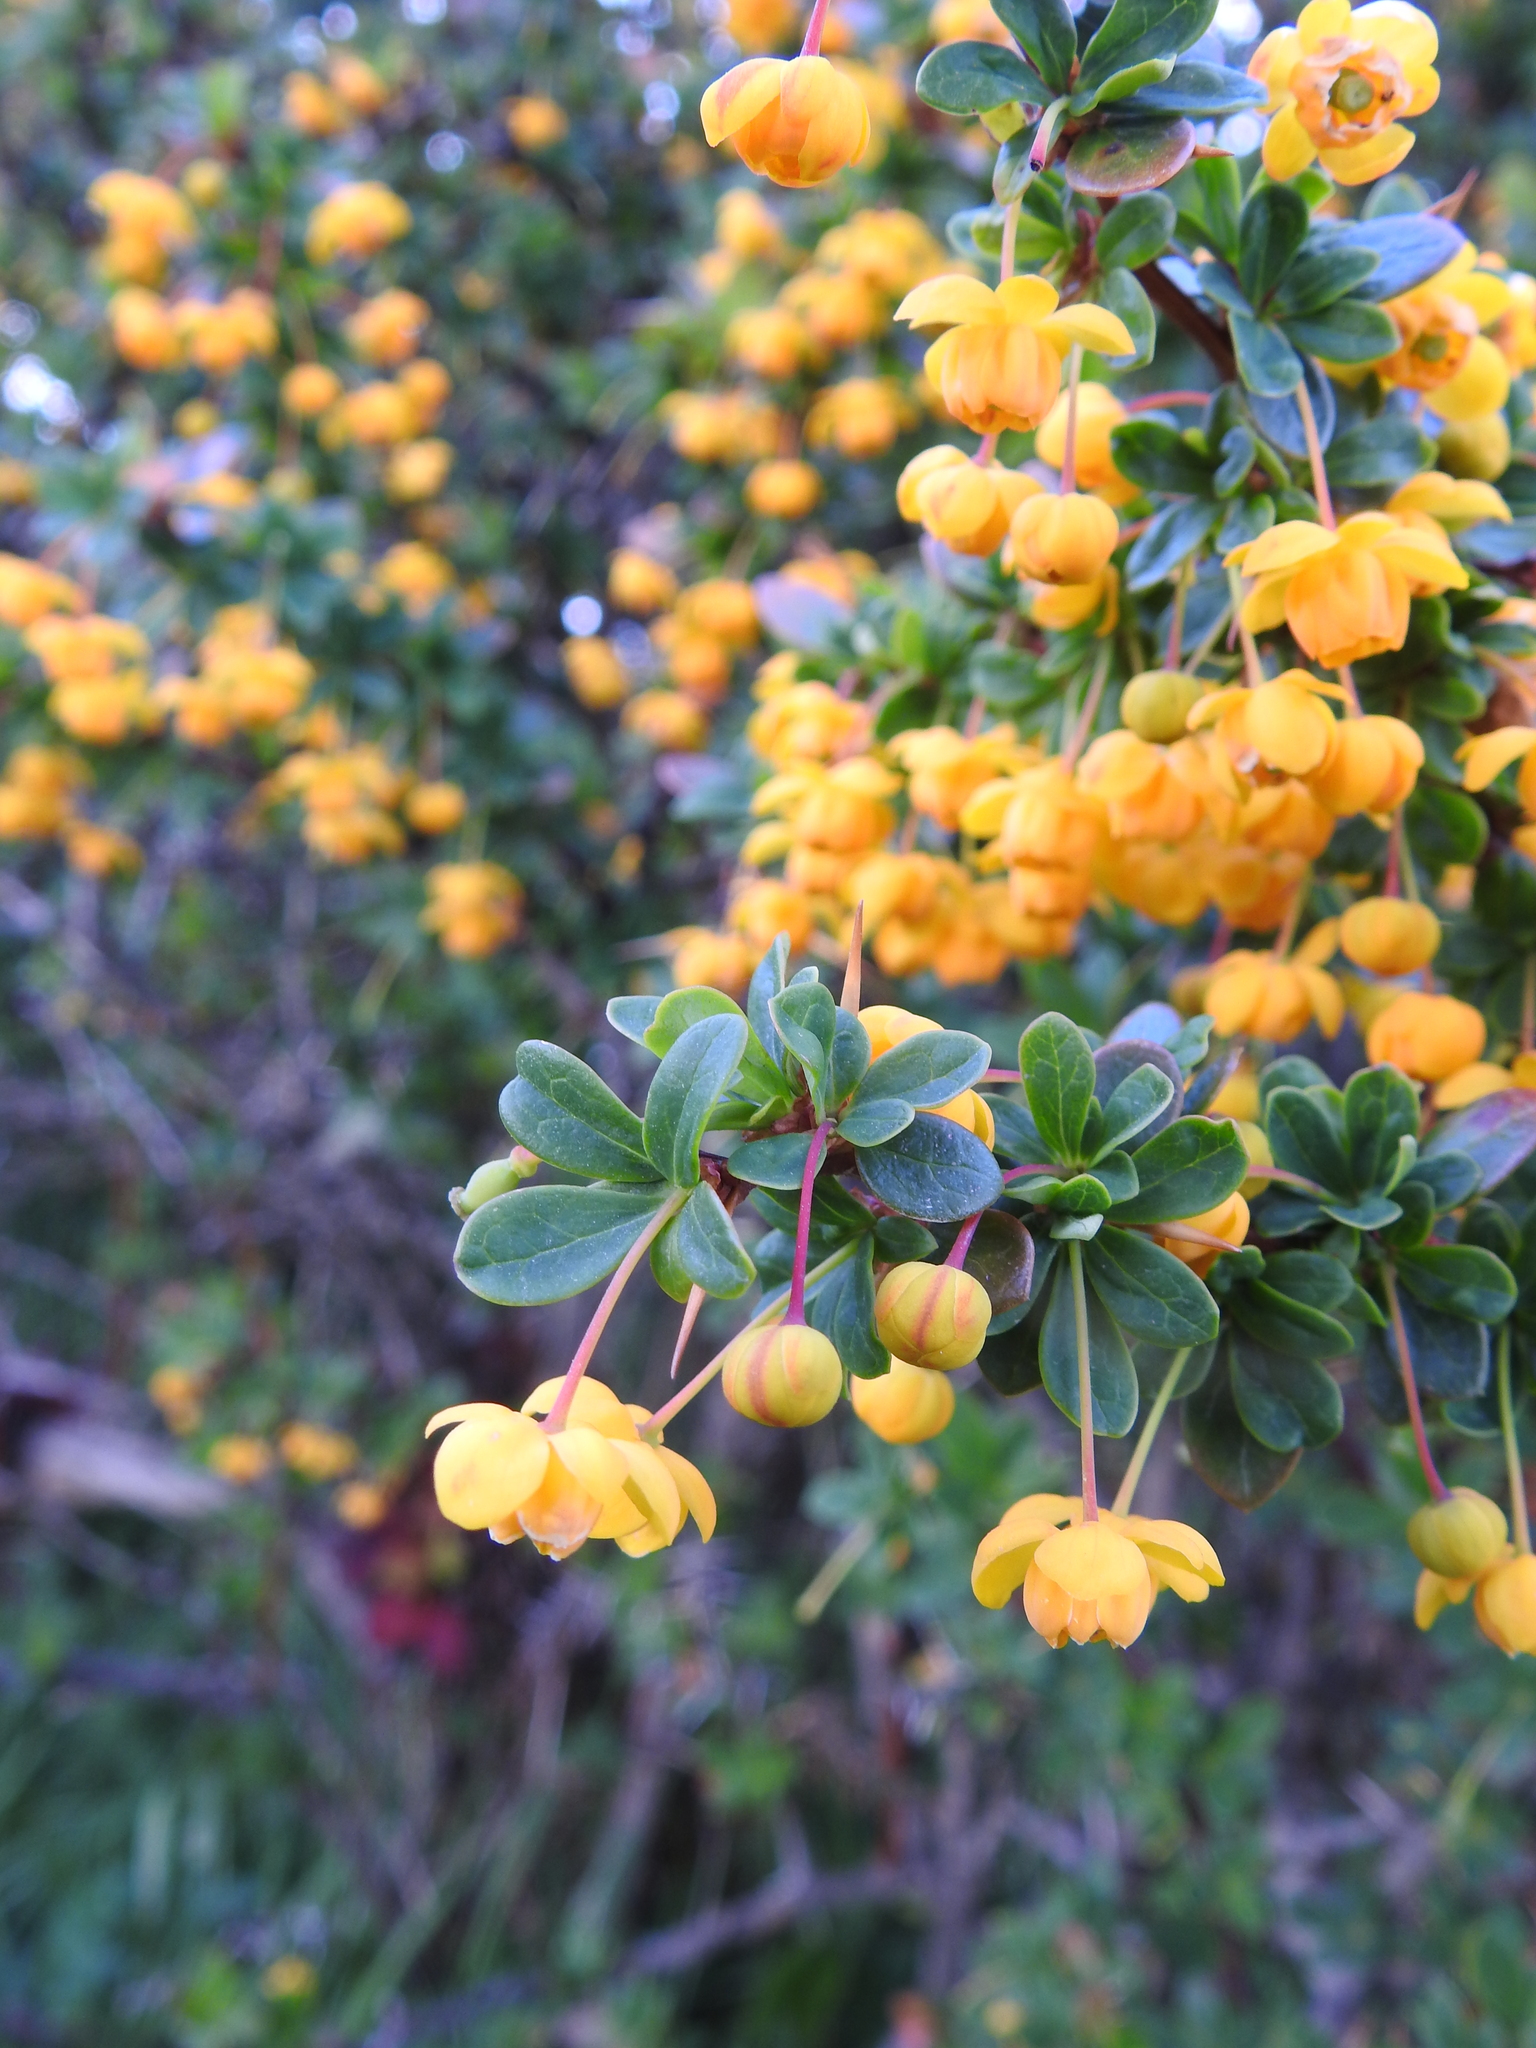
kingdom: Plantae
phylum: Tracheophyta
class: Magnoliopsida
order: Ranunculales
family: Berberidaceae
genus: Berberis
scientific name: Berberis microphylla
